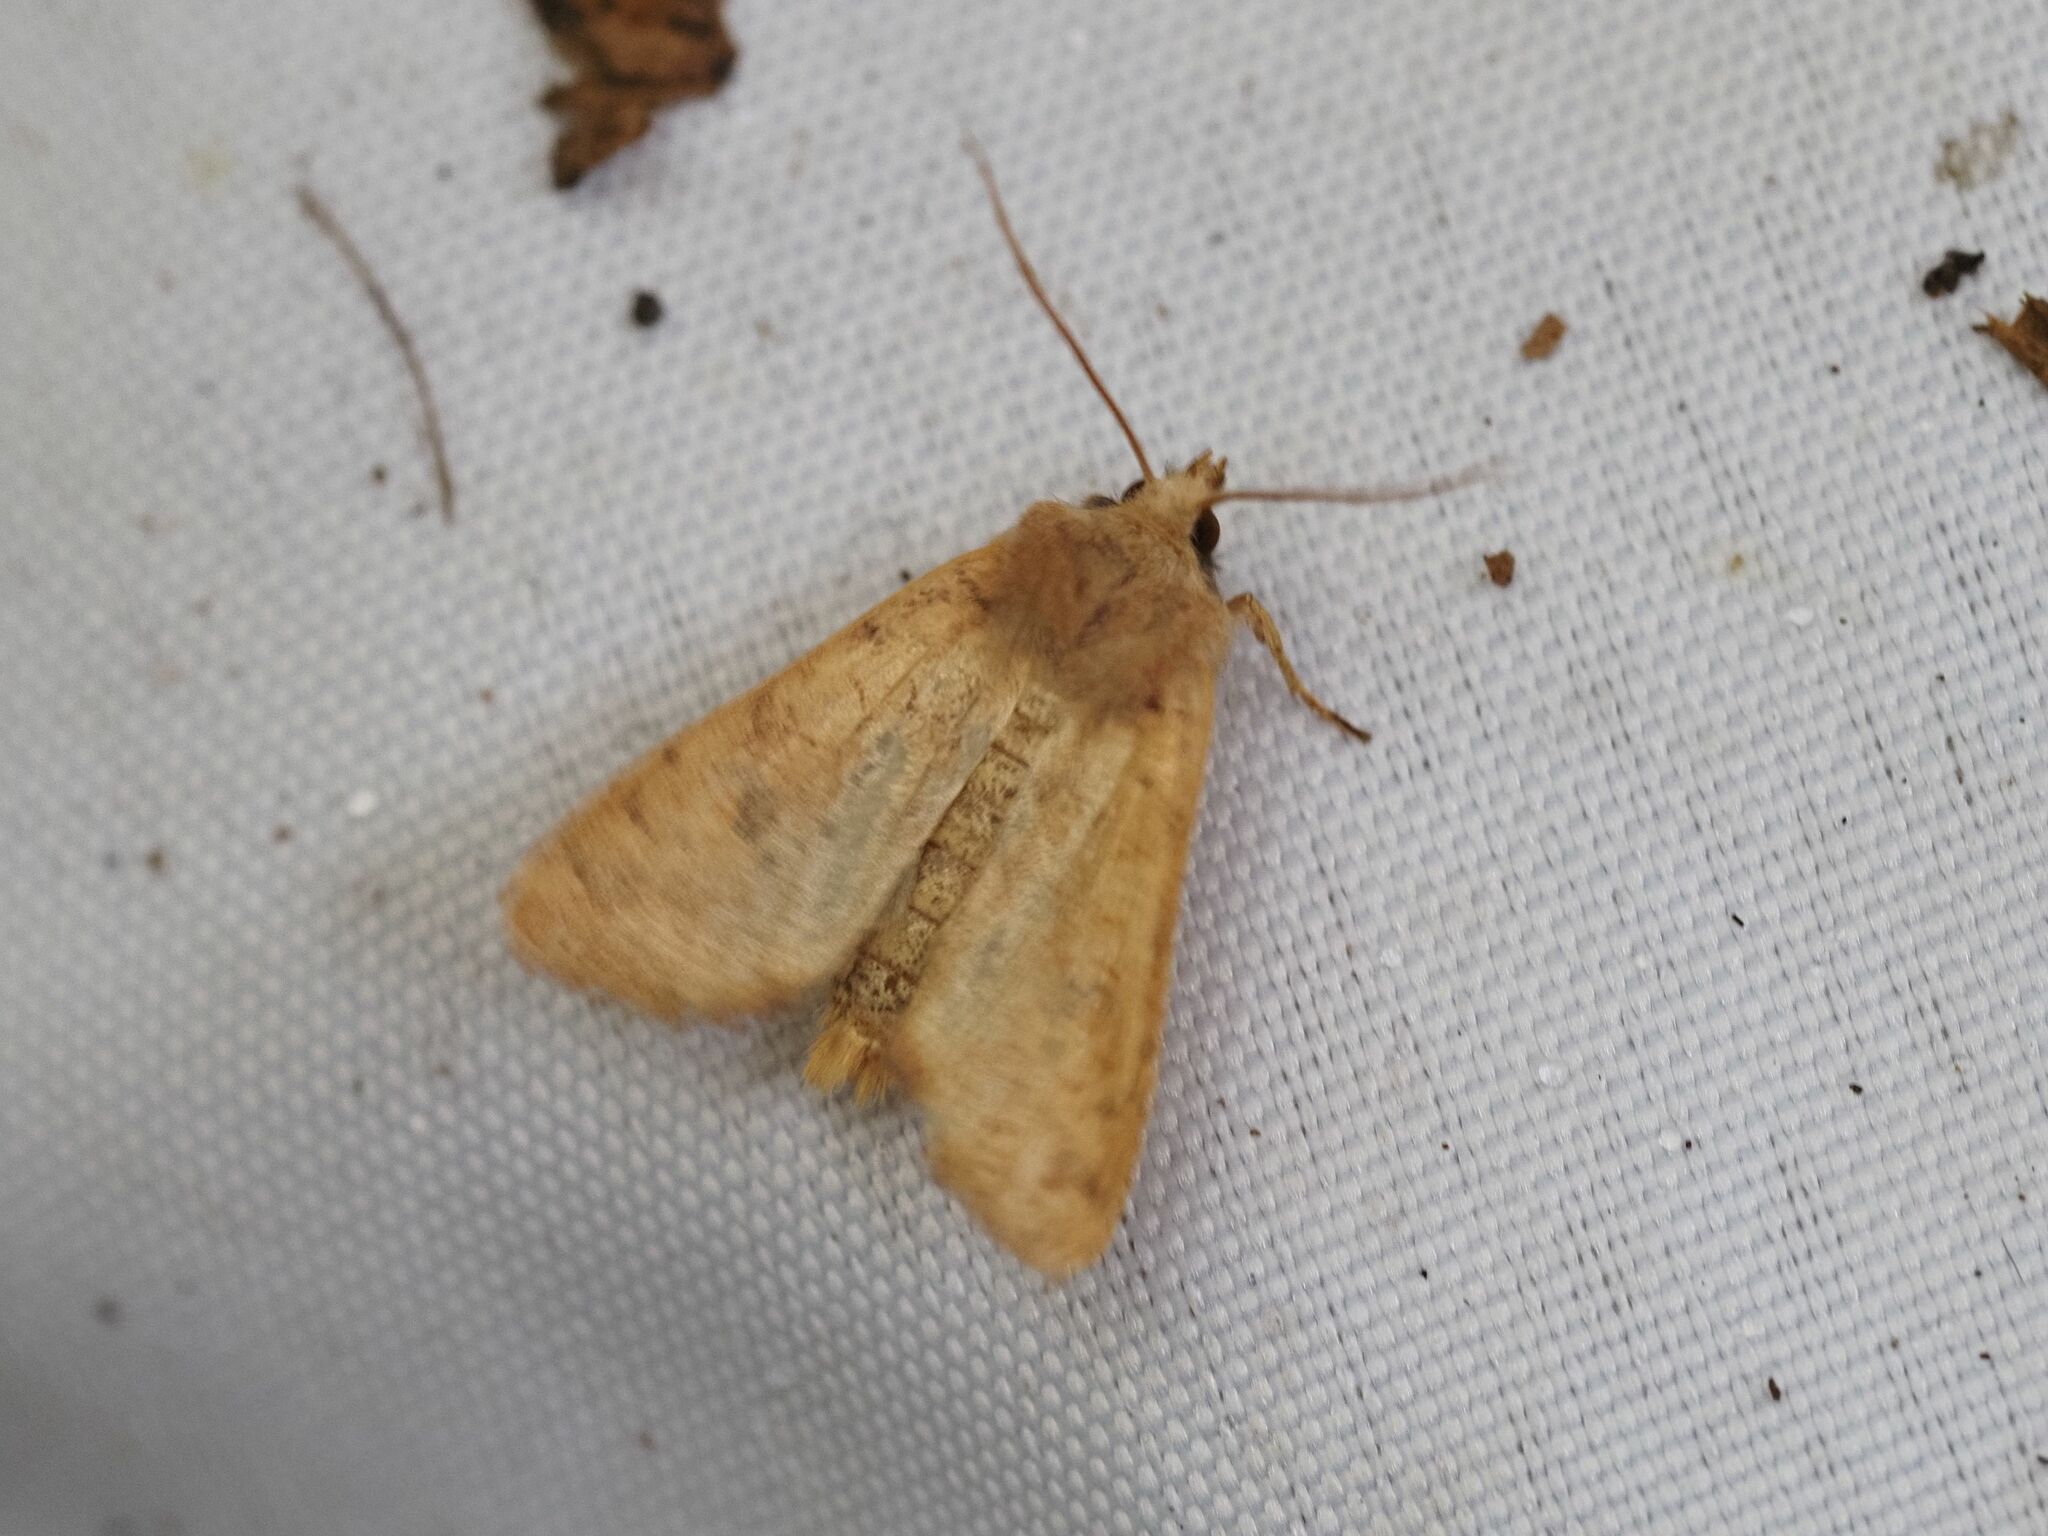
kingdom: Animalia
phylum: Arthropoda
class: Insecta
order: Lepidoptera
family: Noctuidae
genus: Sunira
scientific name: Sunira circellaris
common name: Brick
